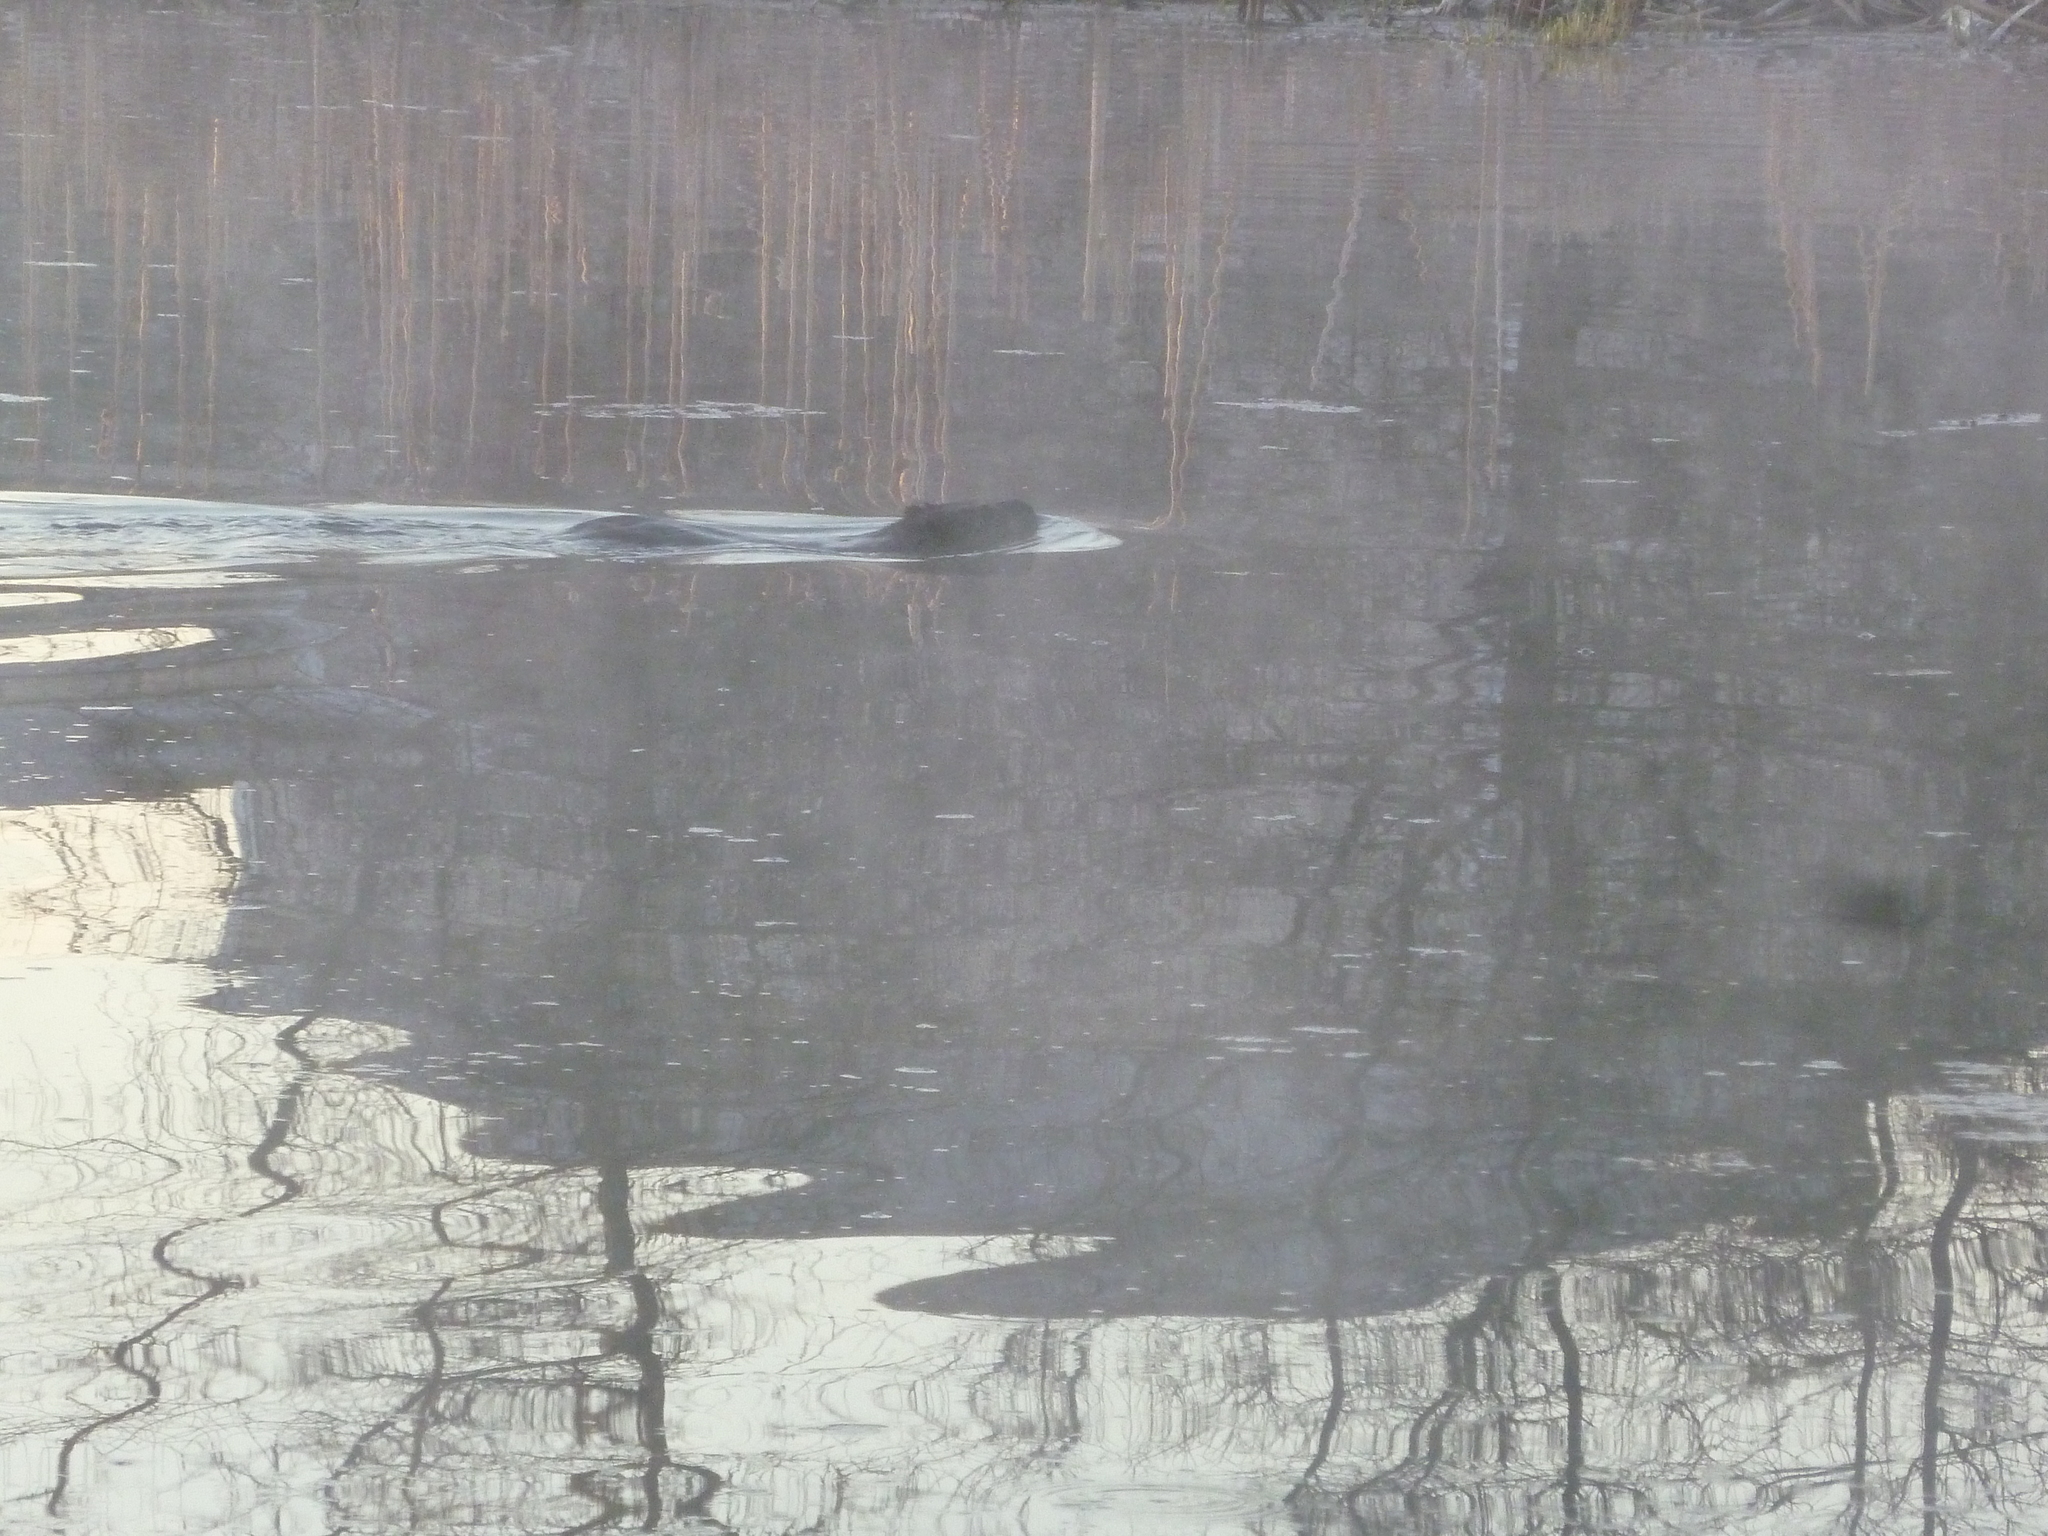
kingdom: Animalia
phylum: Chordata
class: Mammalia
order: Rodentia
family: Castoridae
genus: Castor
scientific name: Castor canadensis
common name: American beaver
